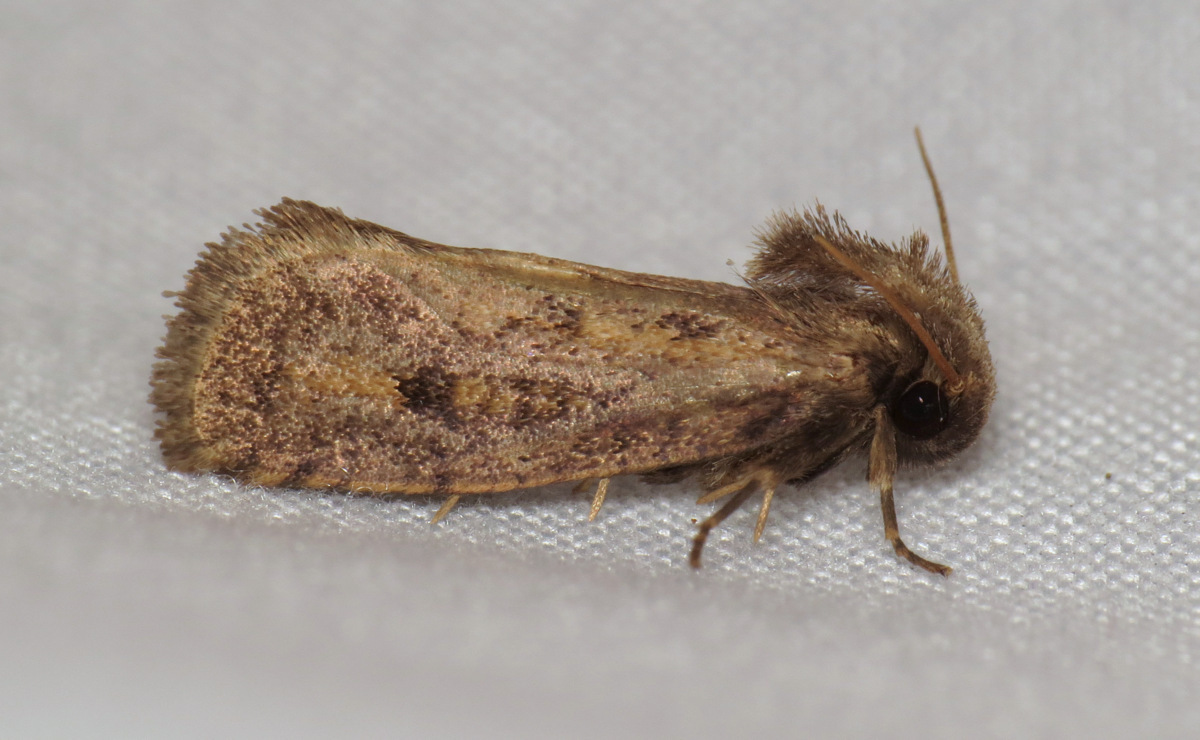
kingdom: Animalia
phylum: Arthropoda
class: Insecta
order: Lepidoptera
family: Tineidae
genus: Acrolophus
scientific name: Acrolophus popeanella
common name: Clemens' grass tubeworm moth
